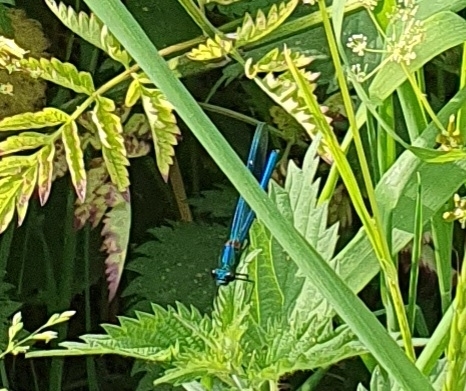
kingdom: Animalia
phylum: Arthropoda
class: Insecta
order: Odonata
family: Calopterygidae
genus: Calopteryx
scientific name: Calopteryx splendens
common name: Banded demoiselle
